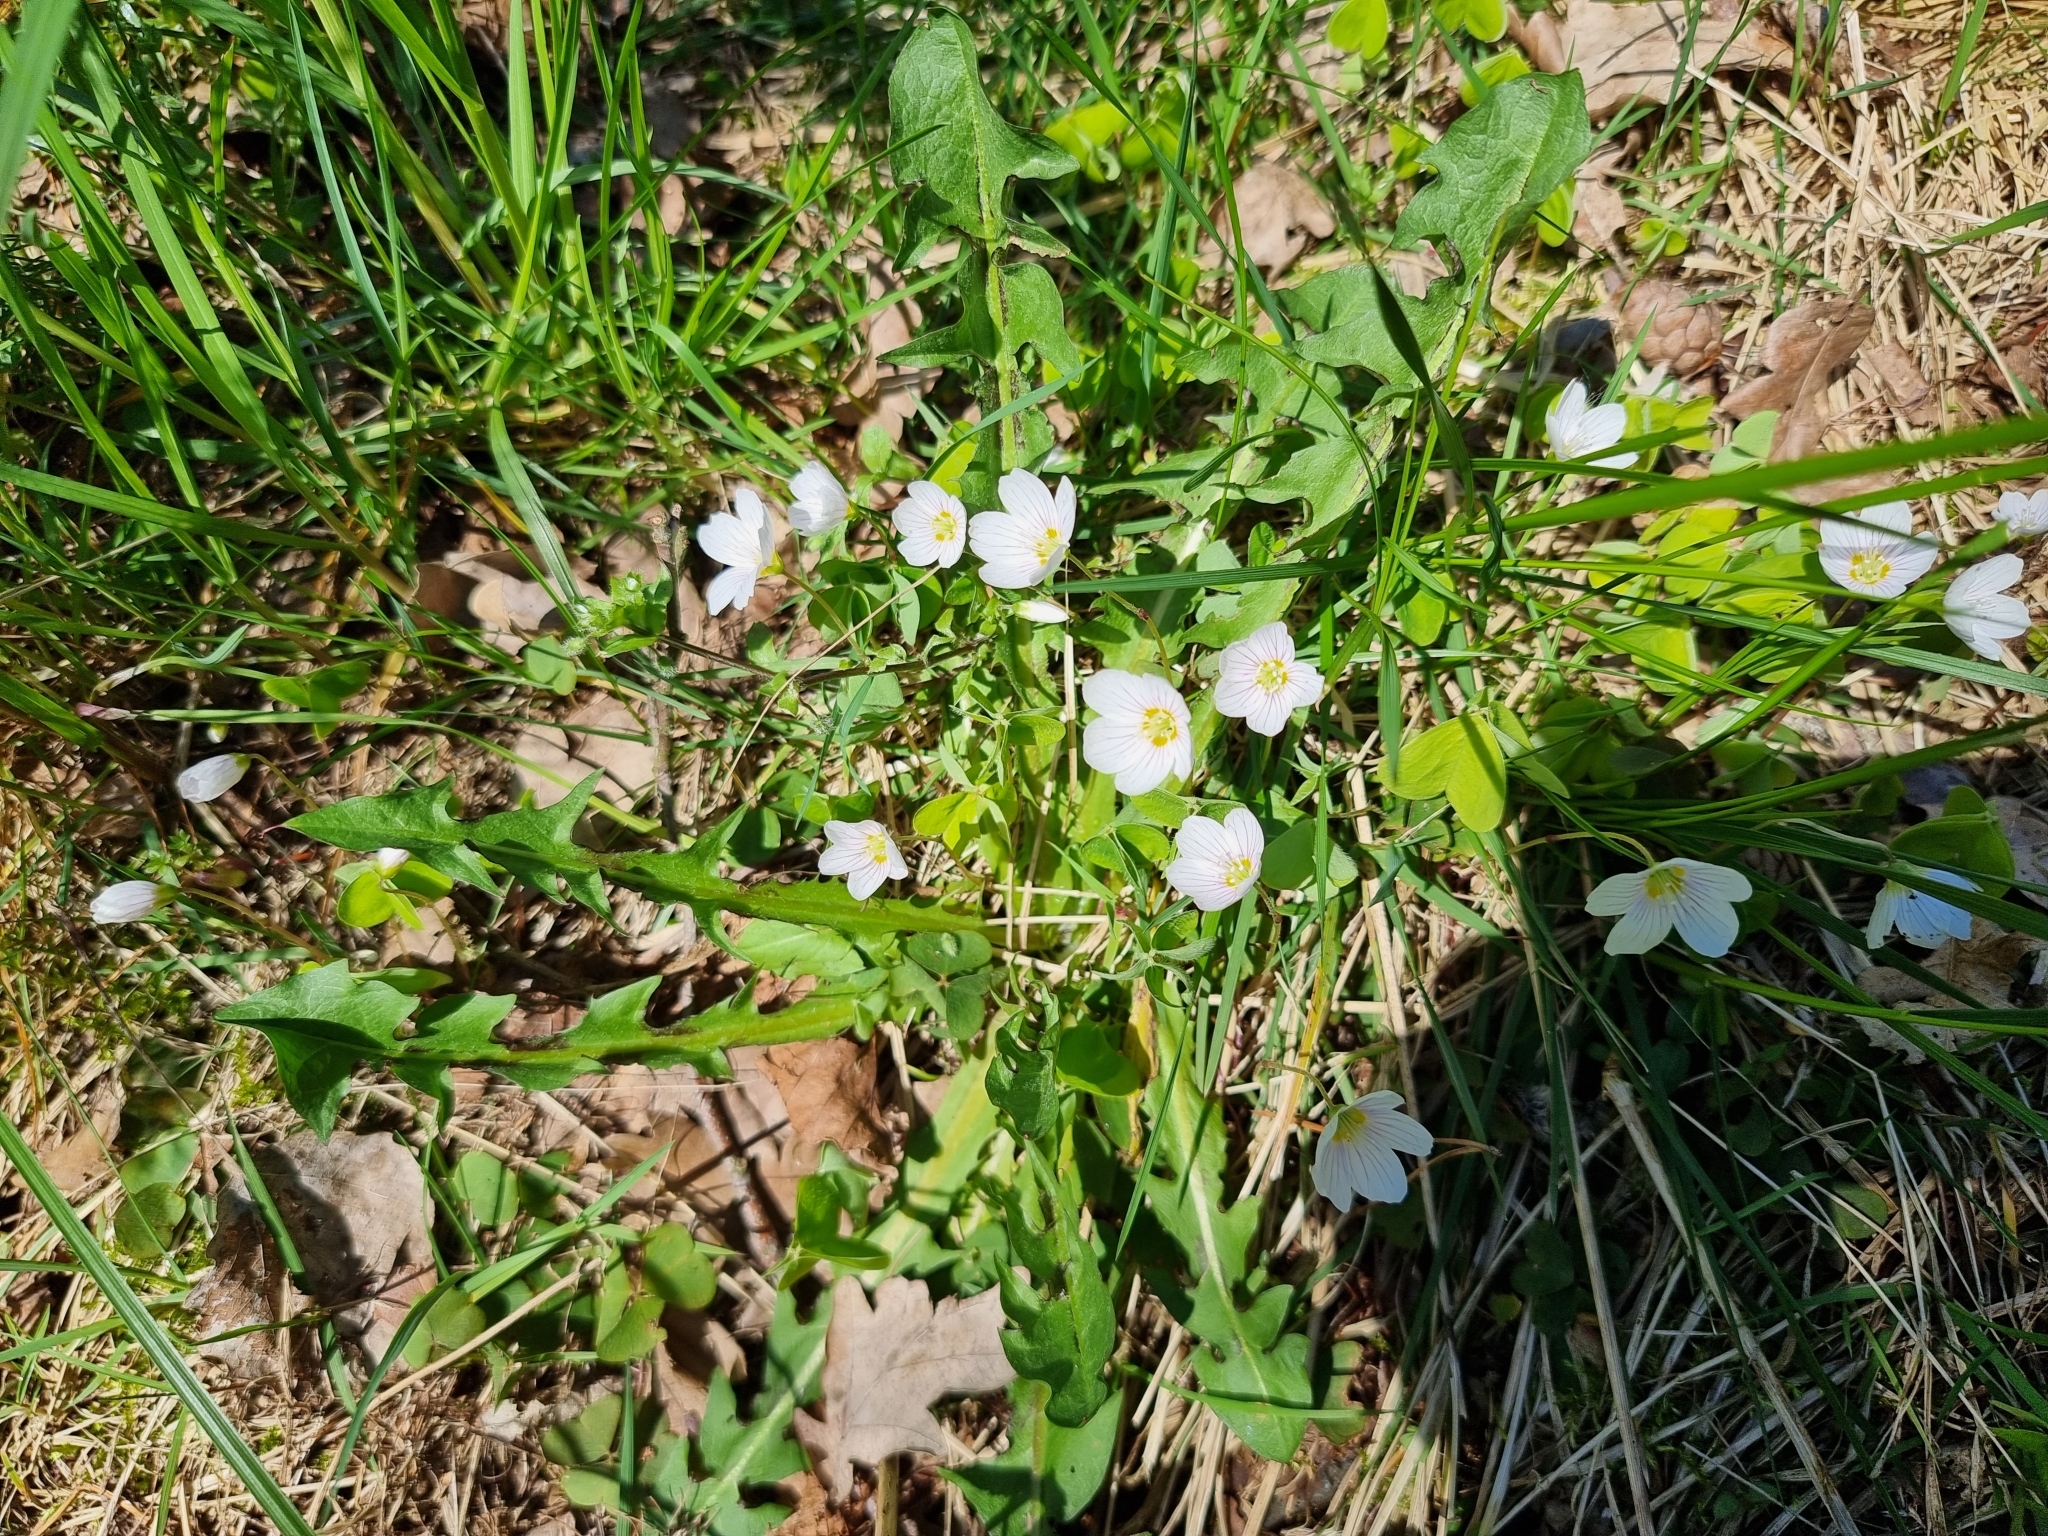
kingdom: Plantae
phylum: Tracheophyta
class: Magnoliopsida
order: Oxalidales
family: Oxalidaceae
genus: Oxalis
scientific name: Oxalis acetosella
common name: Wood-sorrel
